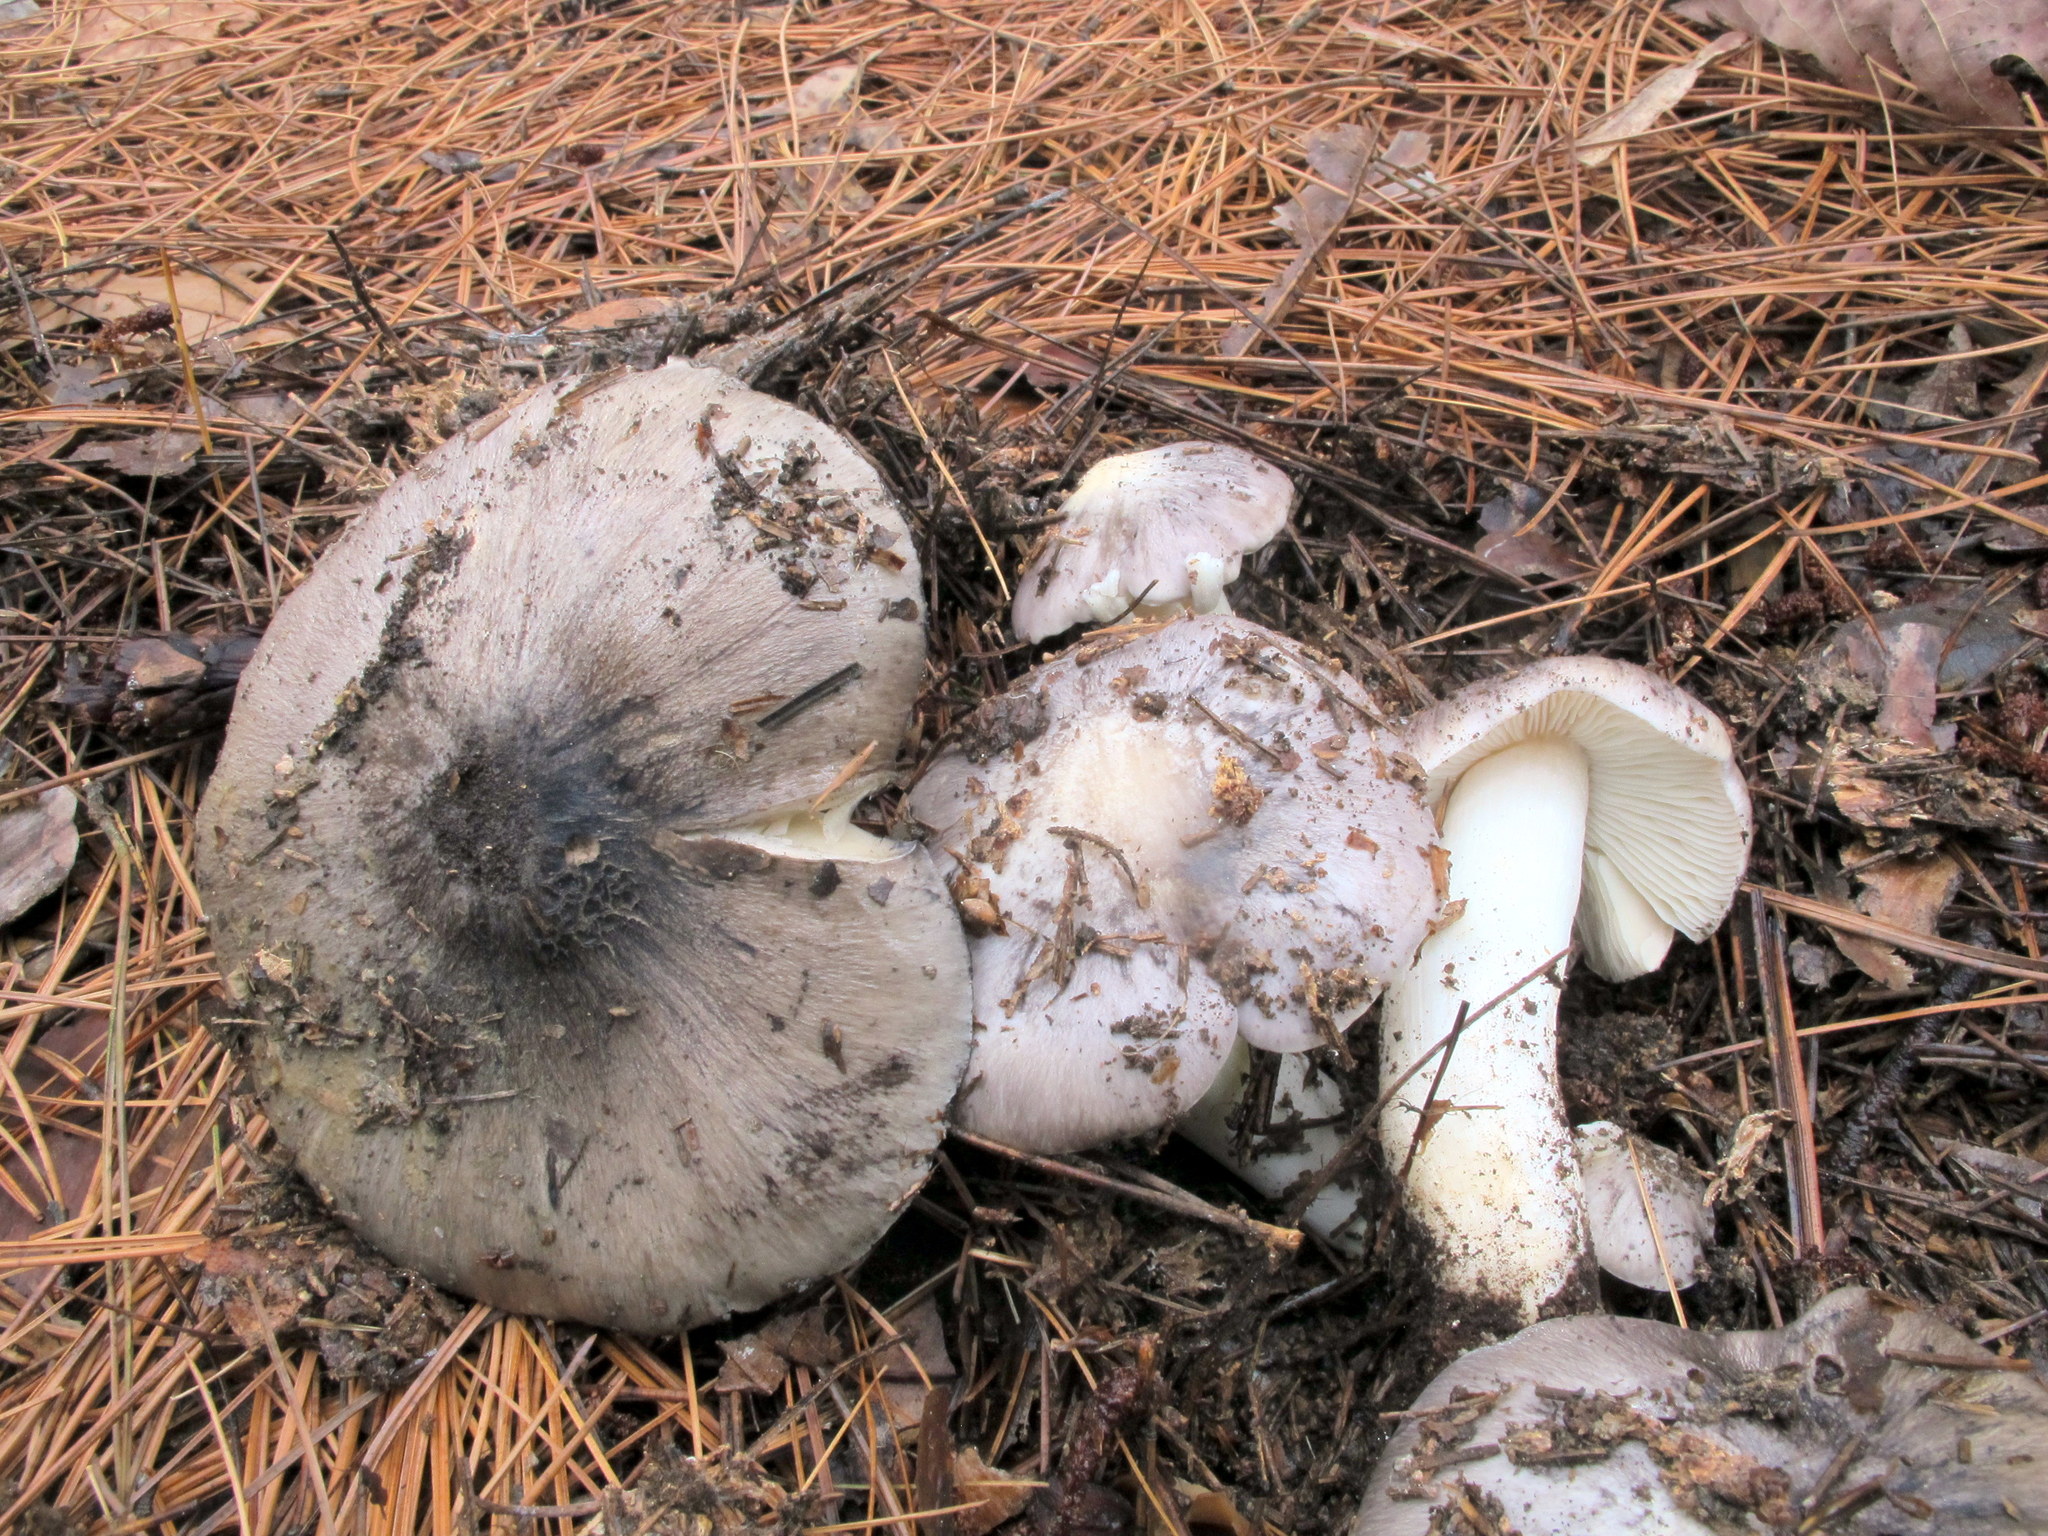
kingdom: Fungi
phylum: Basidiomycota
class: Agaricomycetes
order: Agaricales
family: Tricholomataceae
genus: Tricholoma
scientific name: Tricholoma portentosum
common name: Coalman
